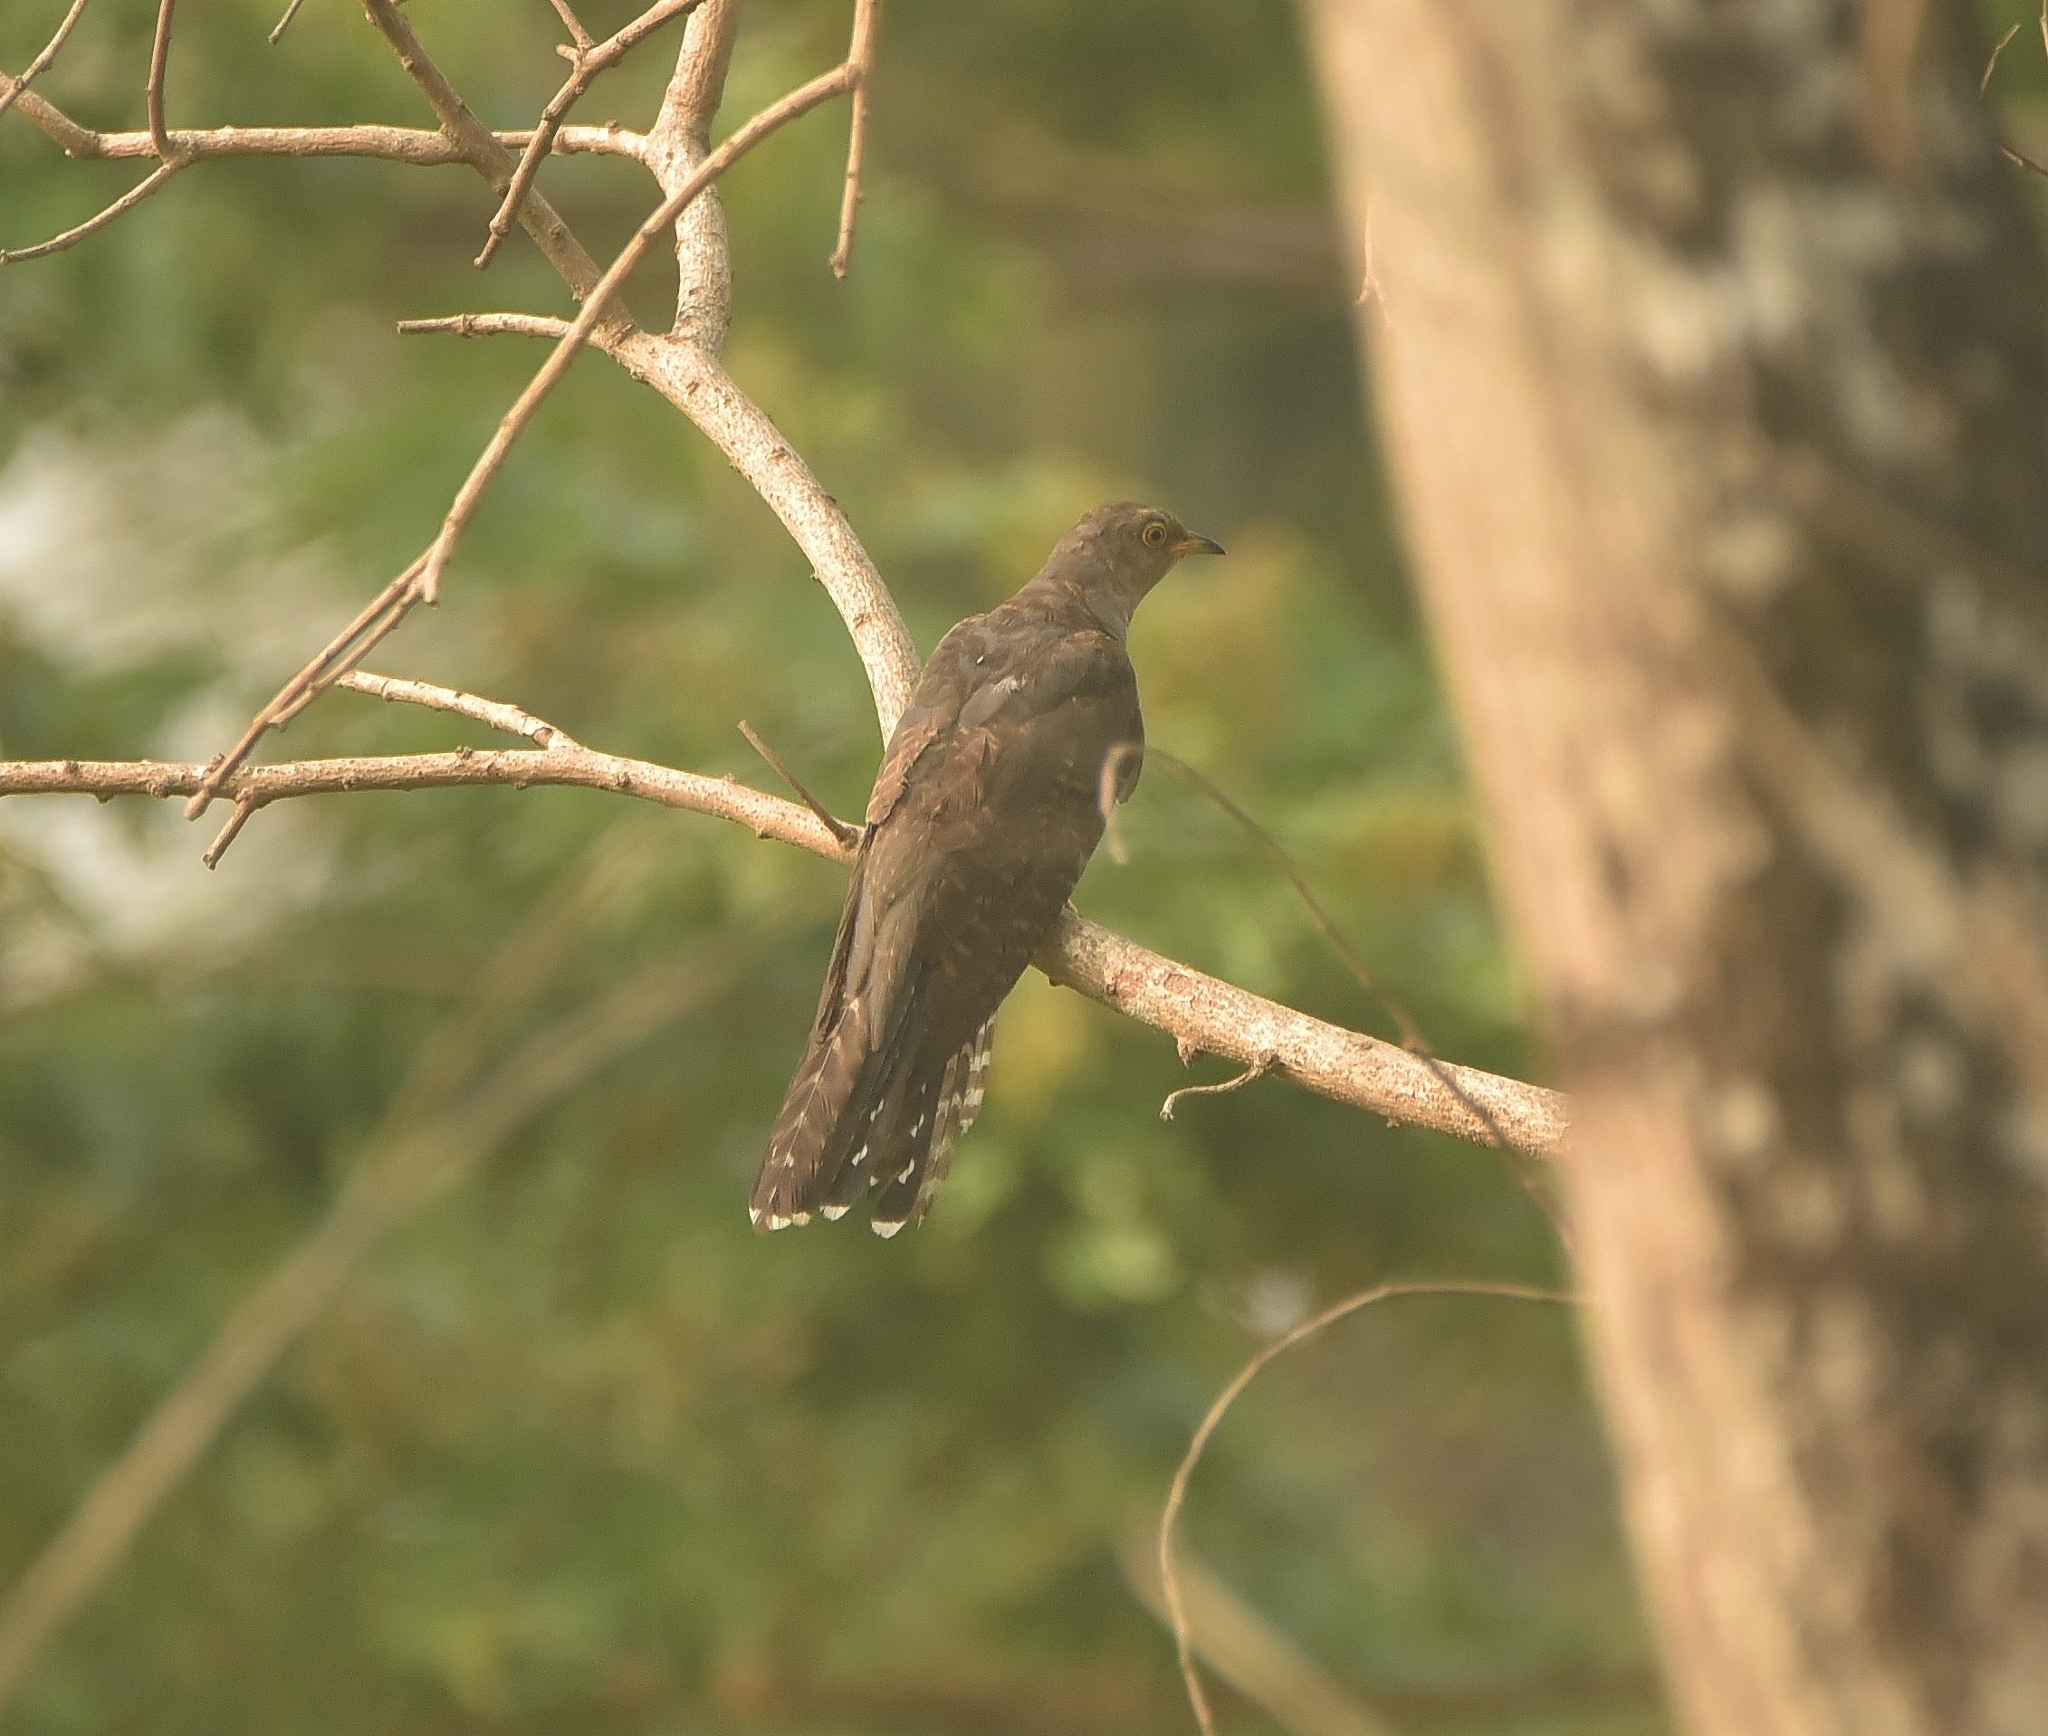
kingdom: Animalia
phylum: Chordata
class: Aves
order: Cuculiformes
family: Cuculidae
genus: Cuculus
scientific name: Cuculus canorus
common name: Common cuckoo
